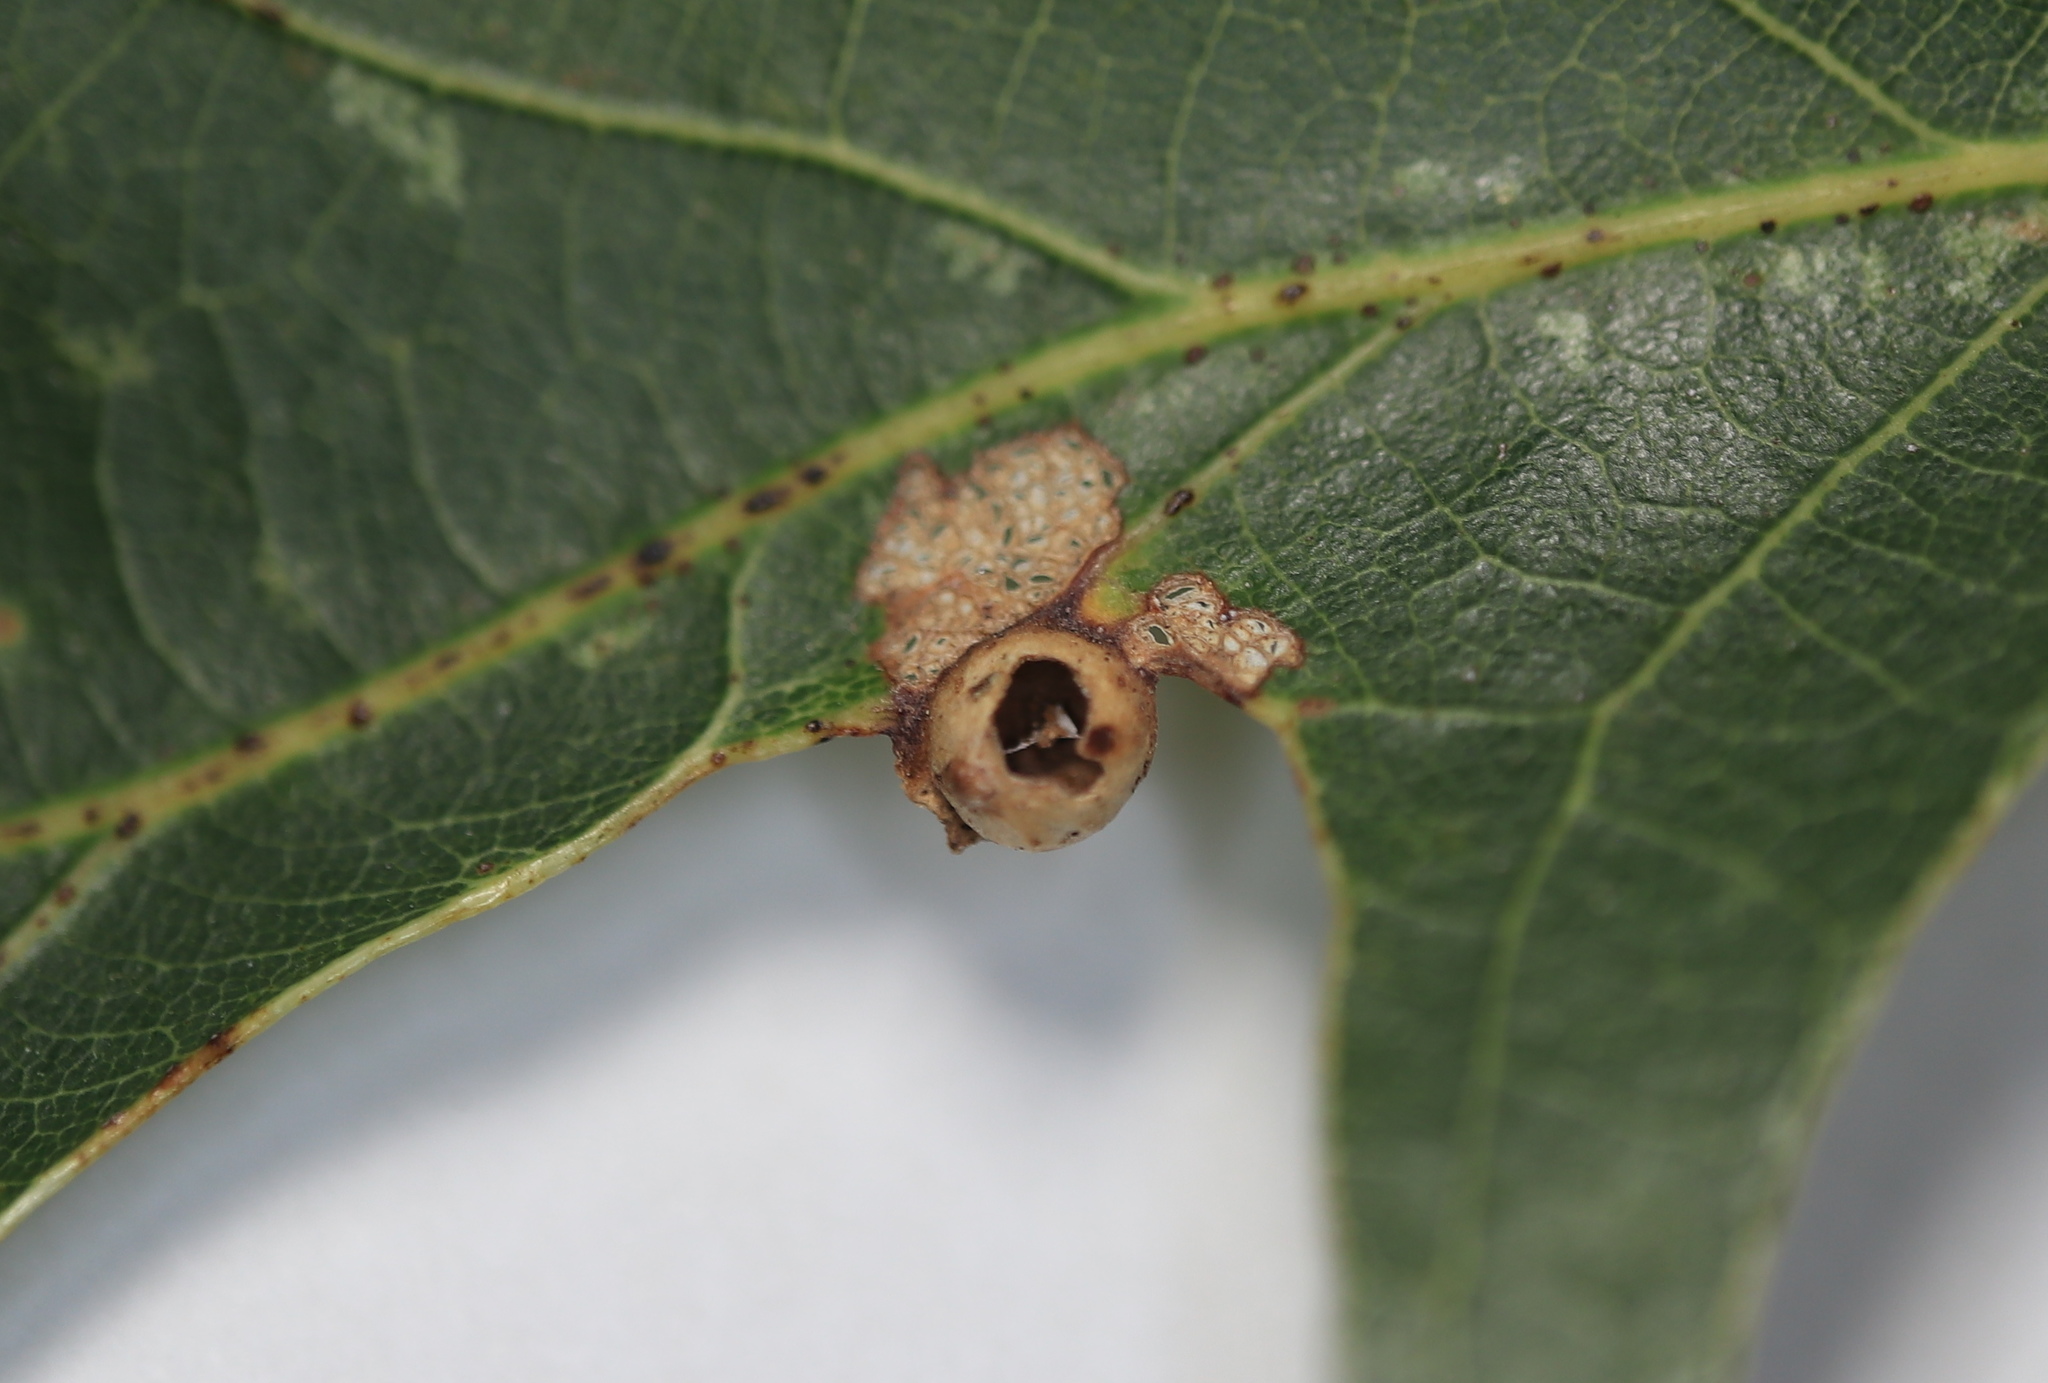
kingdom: Animalia
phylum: Arthropoda
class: Insecta
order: Hymenoptera
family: Cynipidae
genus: Andricus
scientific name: Andricus
